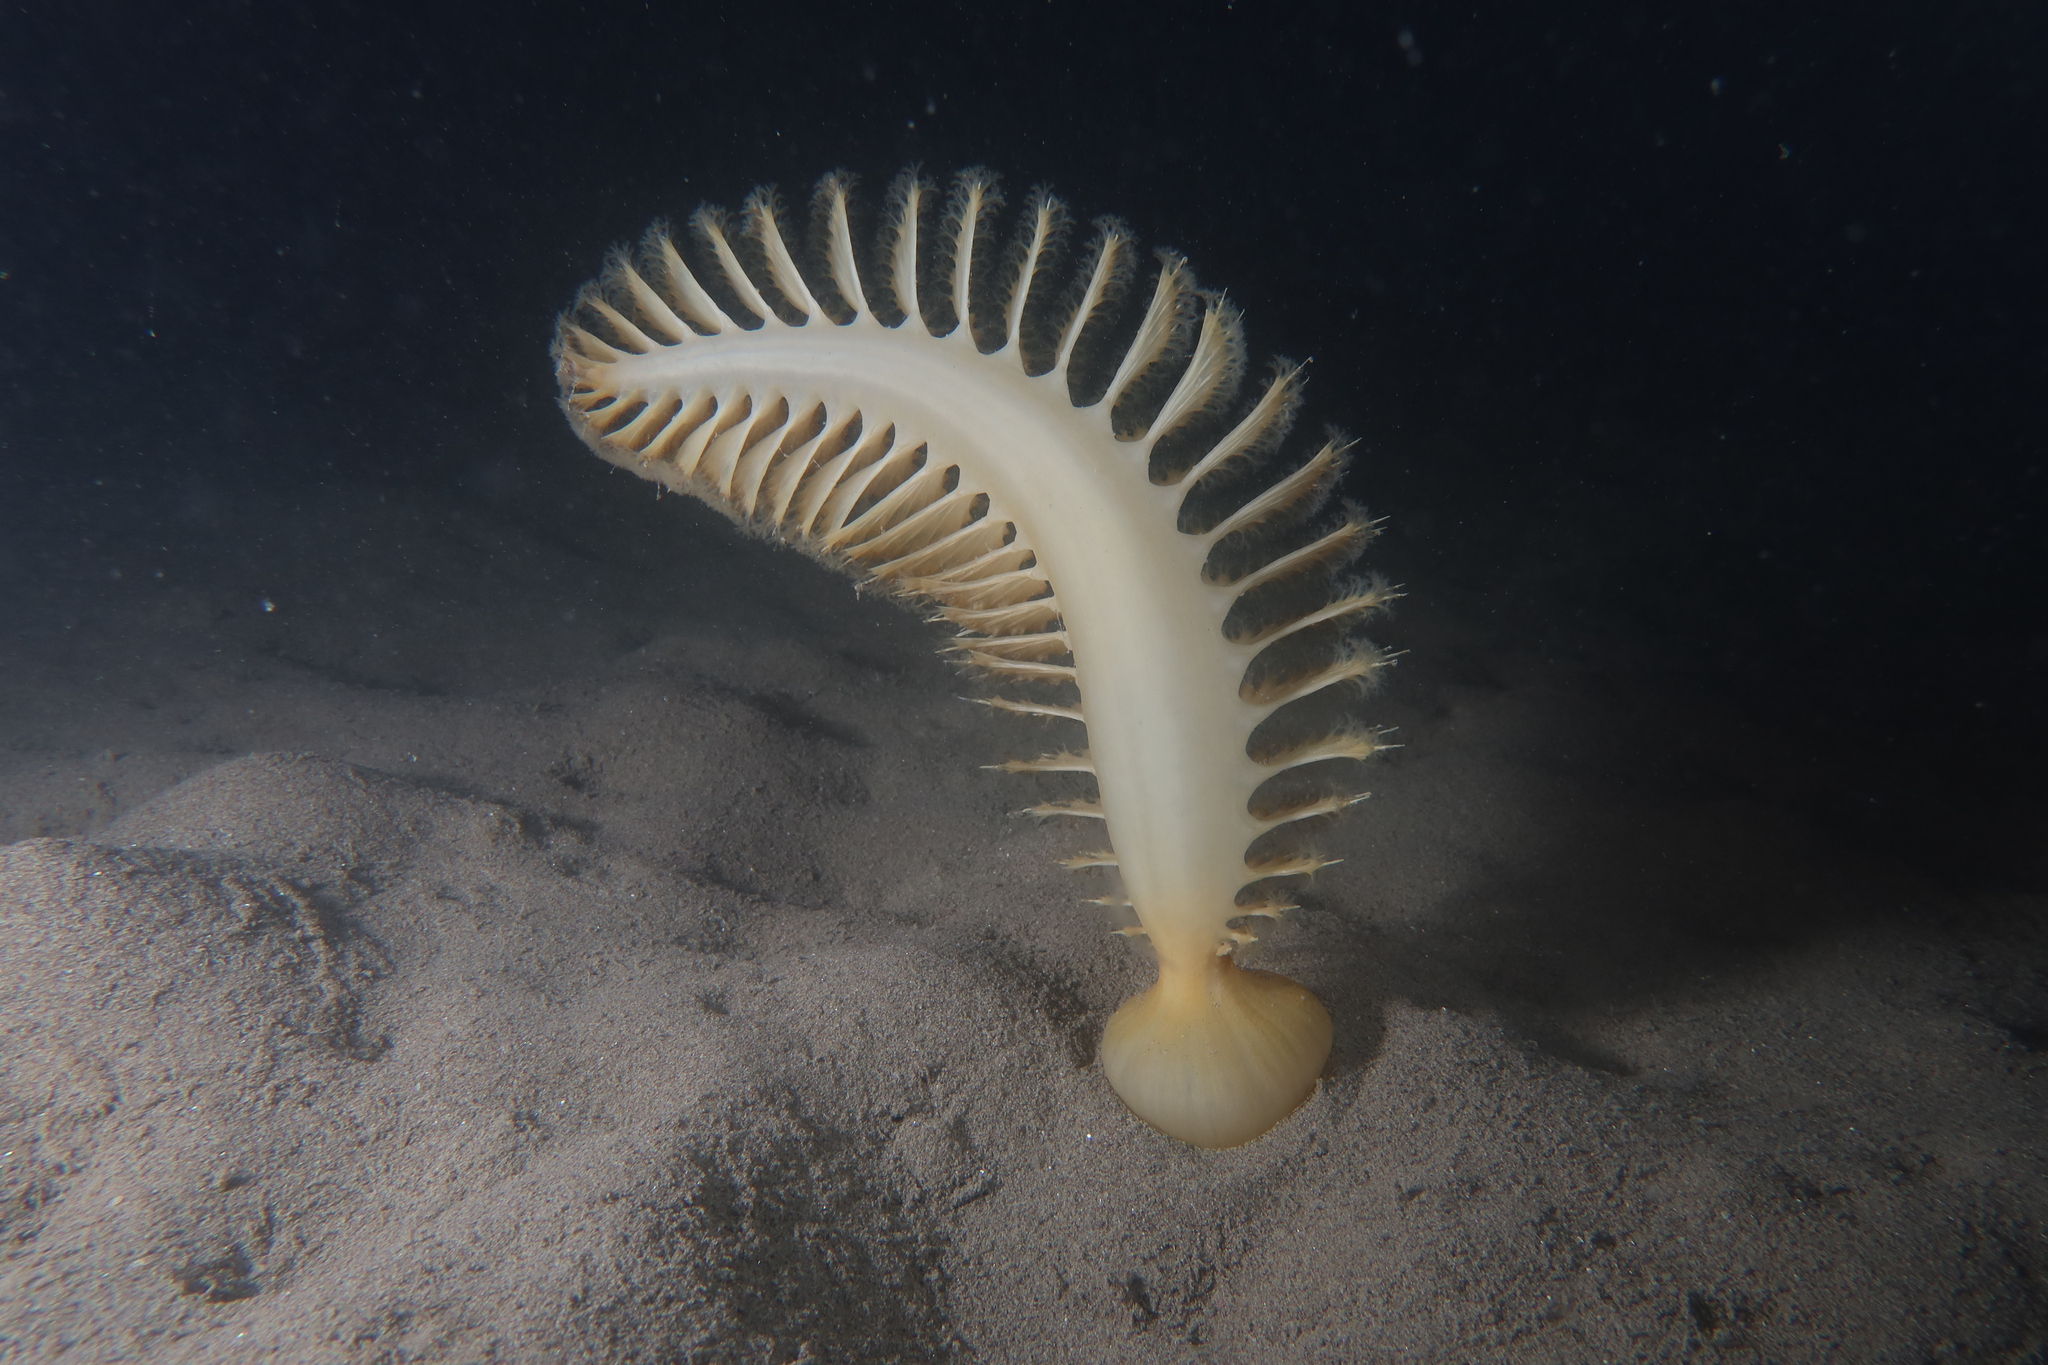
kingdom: Animalia
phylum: Cnidaria
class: Anthozoa
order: Scleralcyonacea
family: Pennatulidae
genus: Pteroeides
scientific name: Pteroeides griseum
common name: Gray sea-pen
